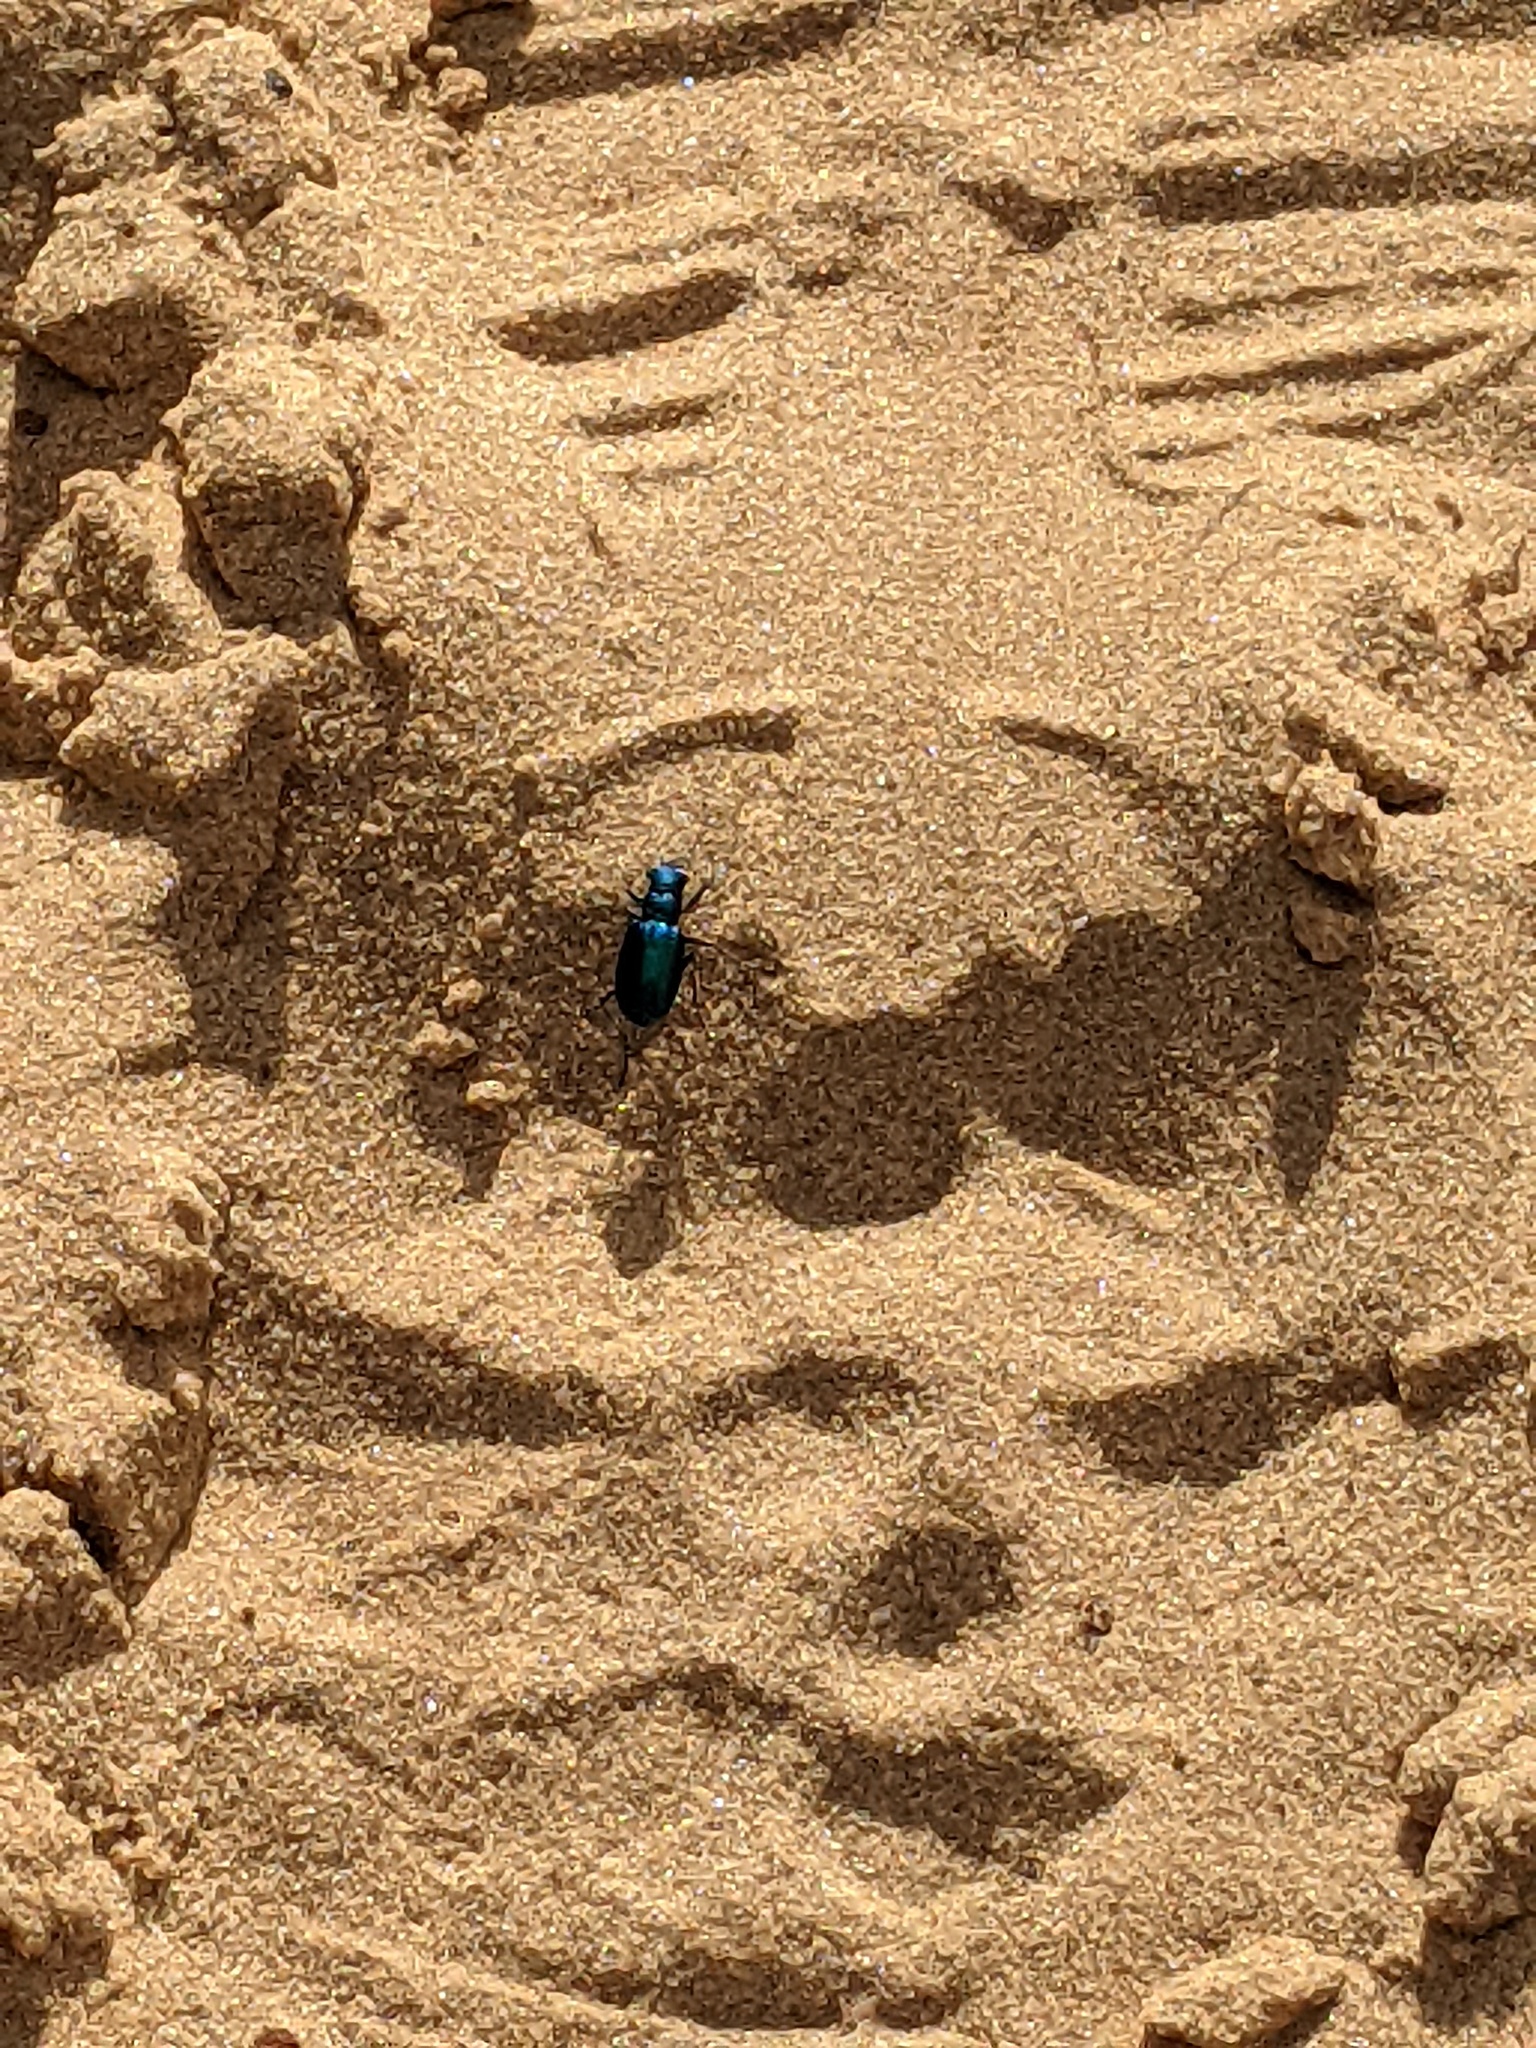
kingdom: Animalia
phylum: Arthropoda
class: Insecta
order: Coleoptera
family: Carabidae
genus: Cicindela
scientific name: Cicindela scutellaris
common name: Festive tiger beetle
